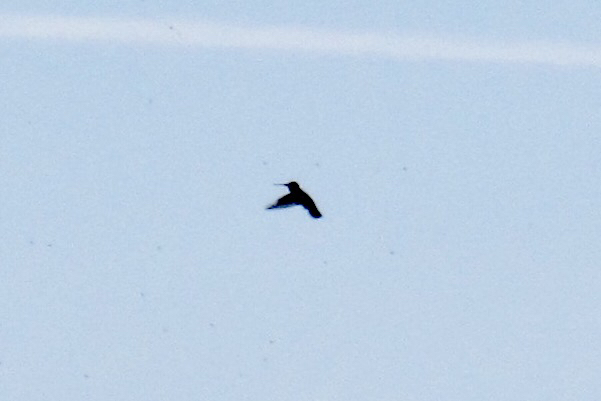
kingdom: Animalia
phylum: Chordata
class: Aves
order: Apodiformes
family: Trochilidae
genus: Calypte
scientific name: Calypte anna
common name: Anna's hummingbird
